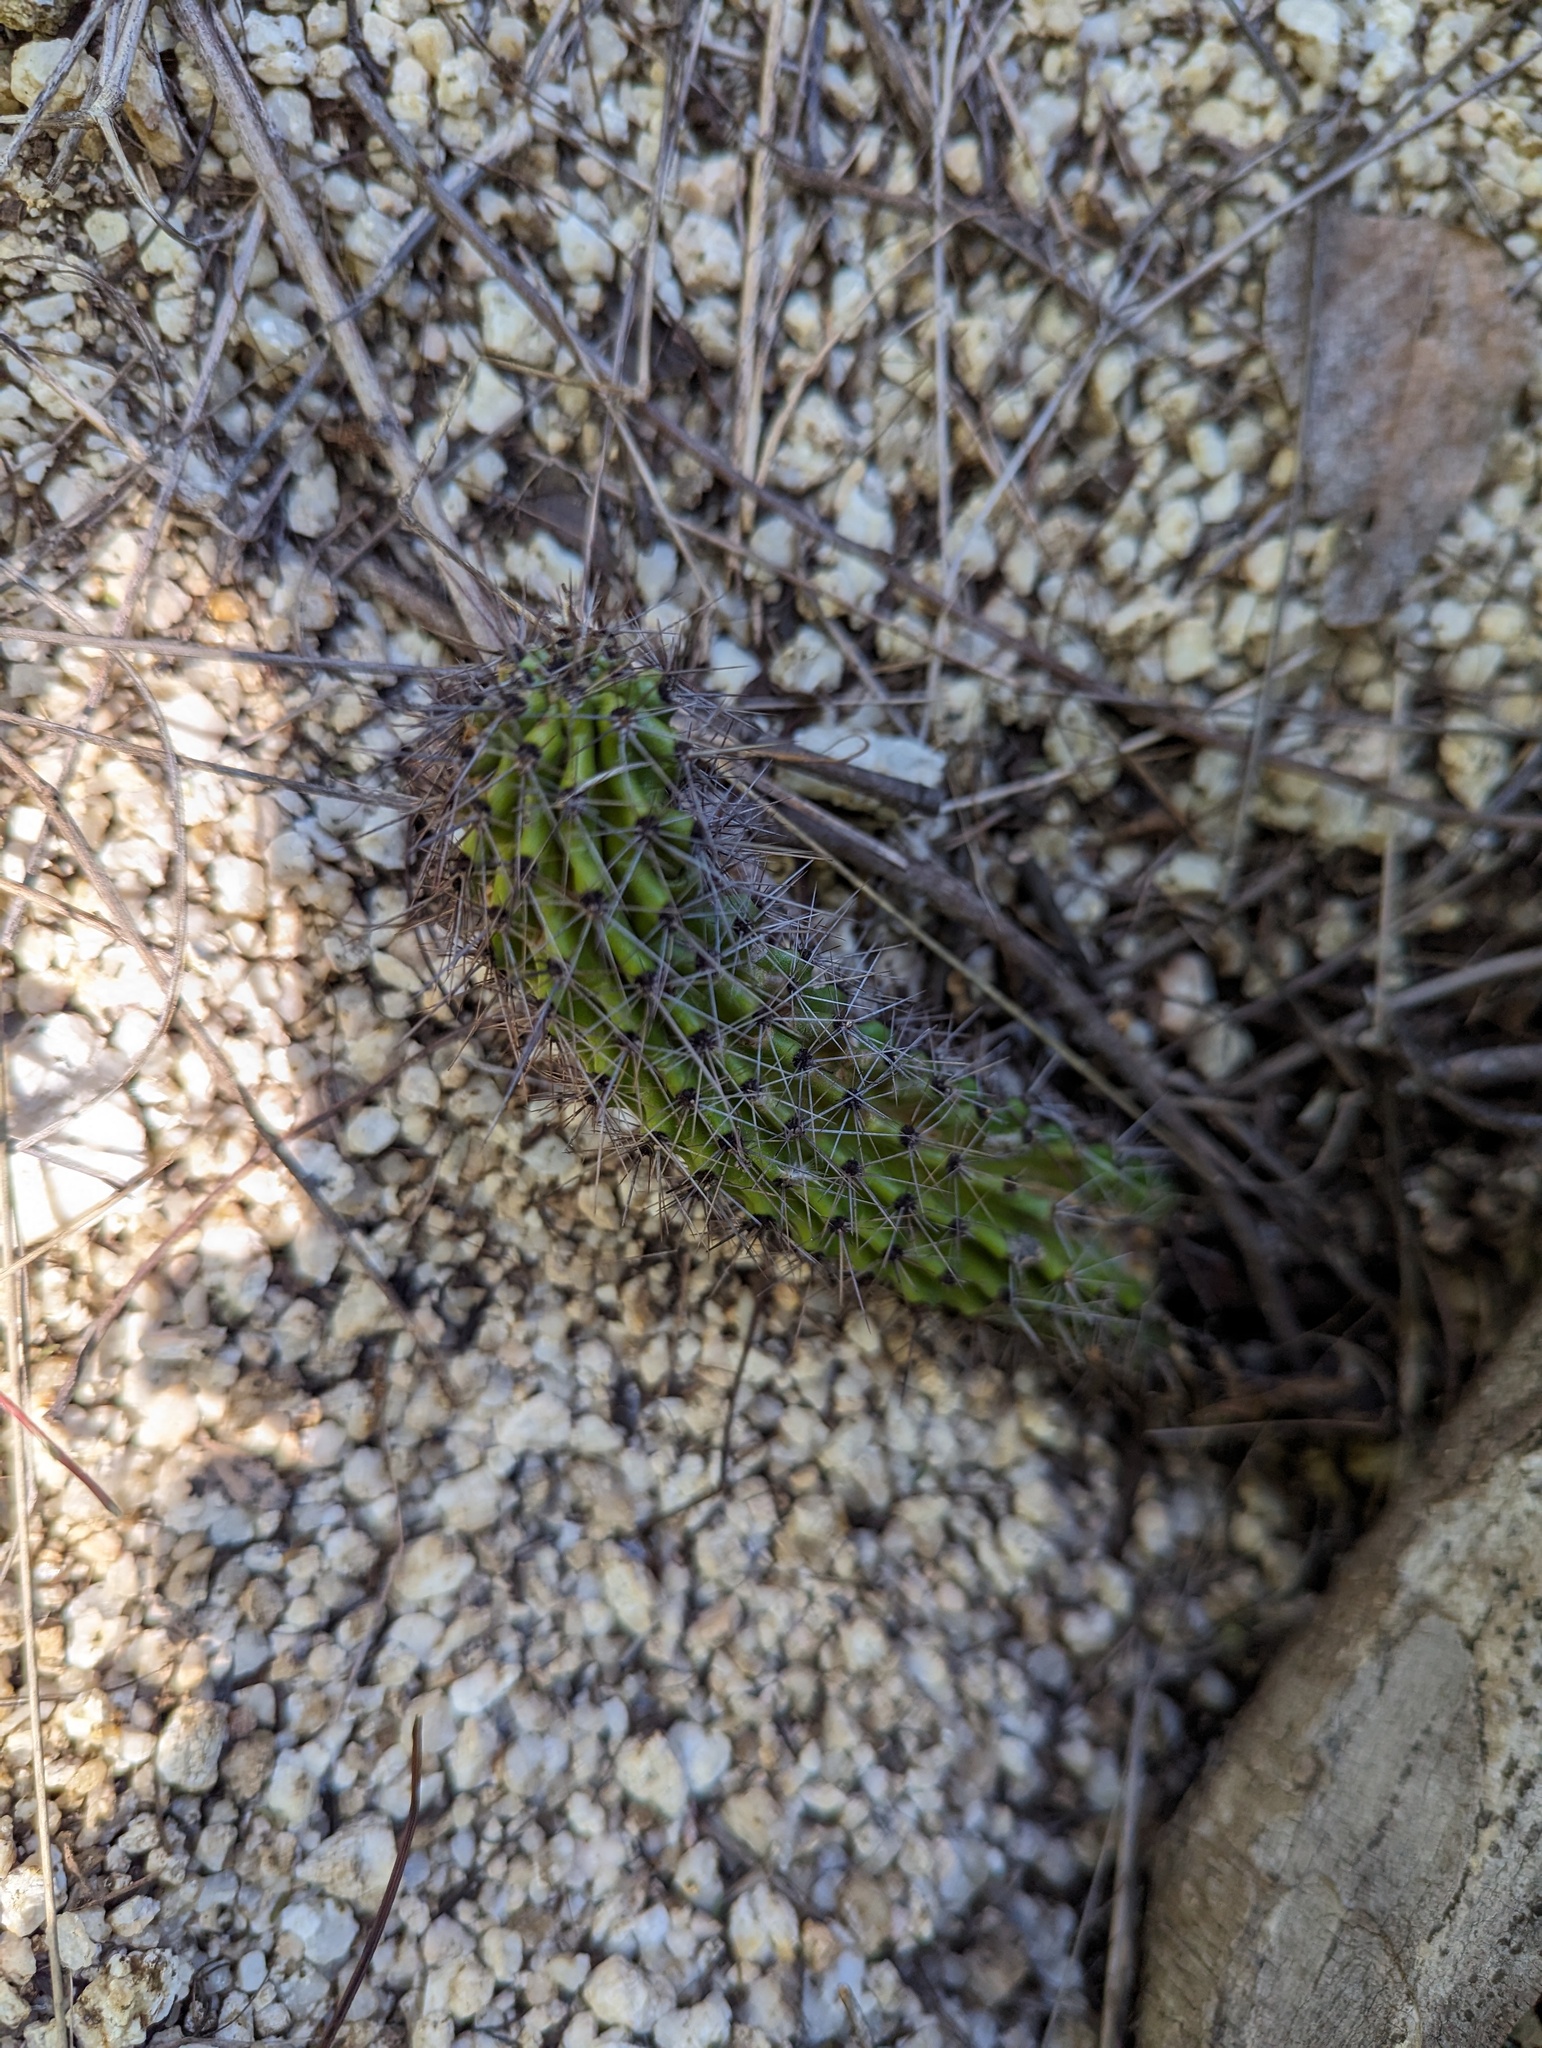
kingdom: Plantae
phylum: Tracheophyta
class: Magnoliopsida
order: Caryophyllales
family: Cactaceae
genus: Stenocereus
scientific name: Stenocereus thurberi
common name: Organ pipe cactus
